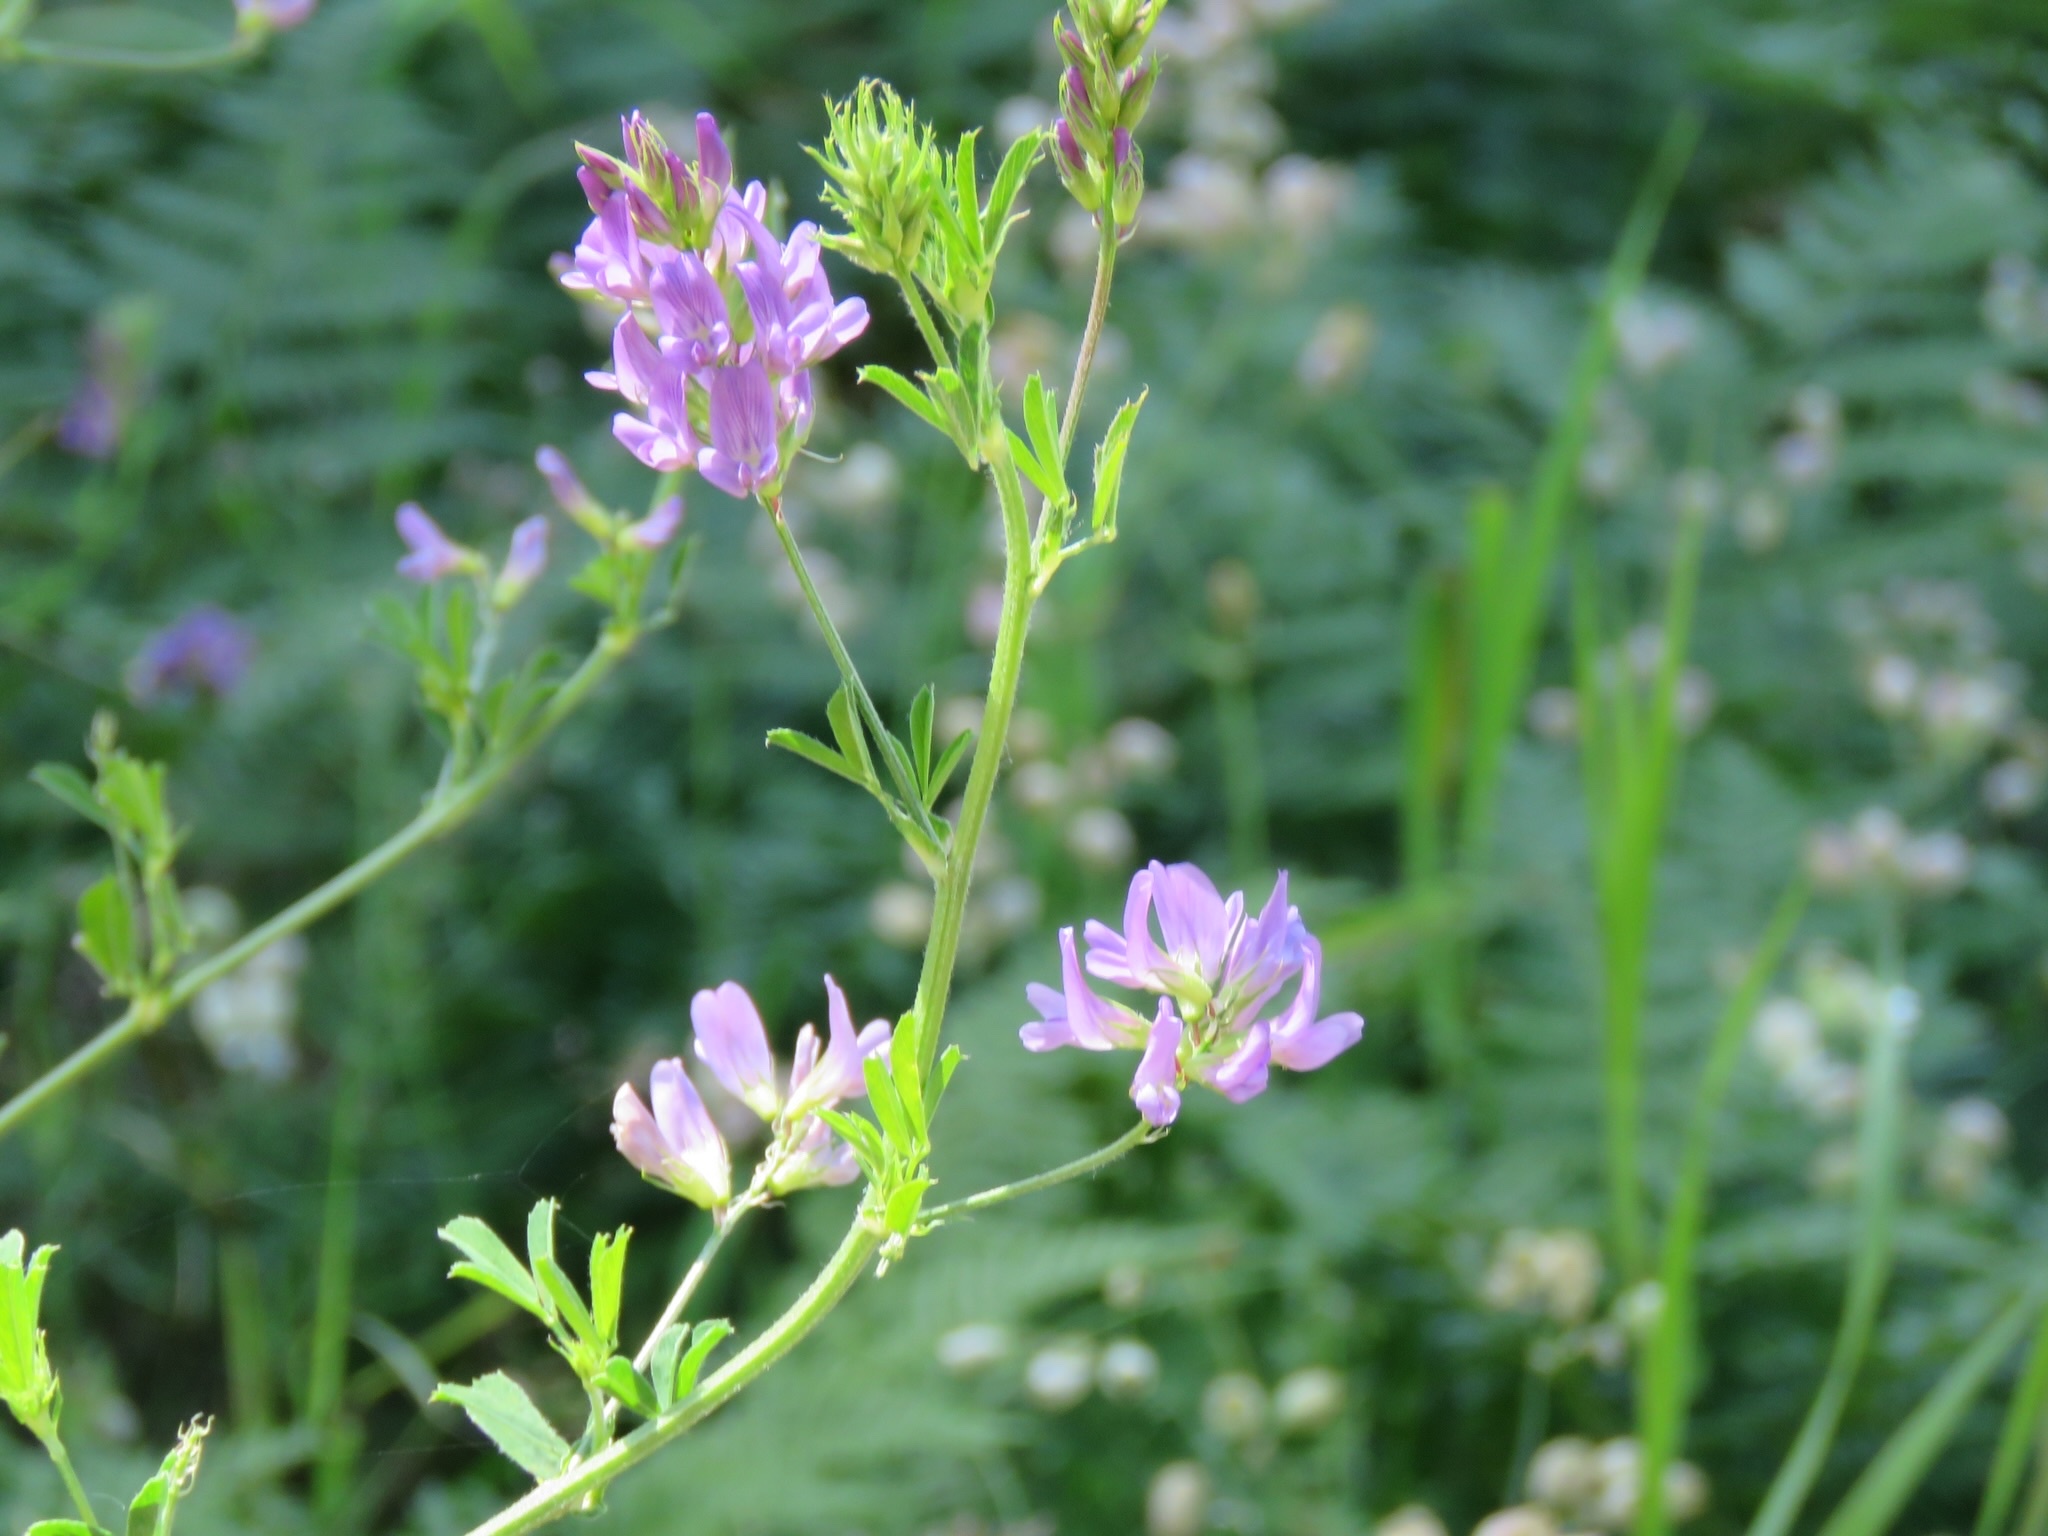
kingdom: Plantae
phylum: Tracheophyta
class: Magnoliopsida
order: Fabales
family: Fabaceae
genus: Medicago
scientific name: Medicago sativa
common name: Alfalfa
